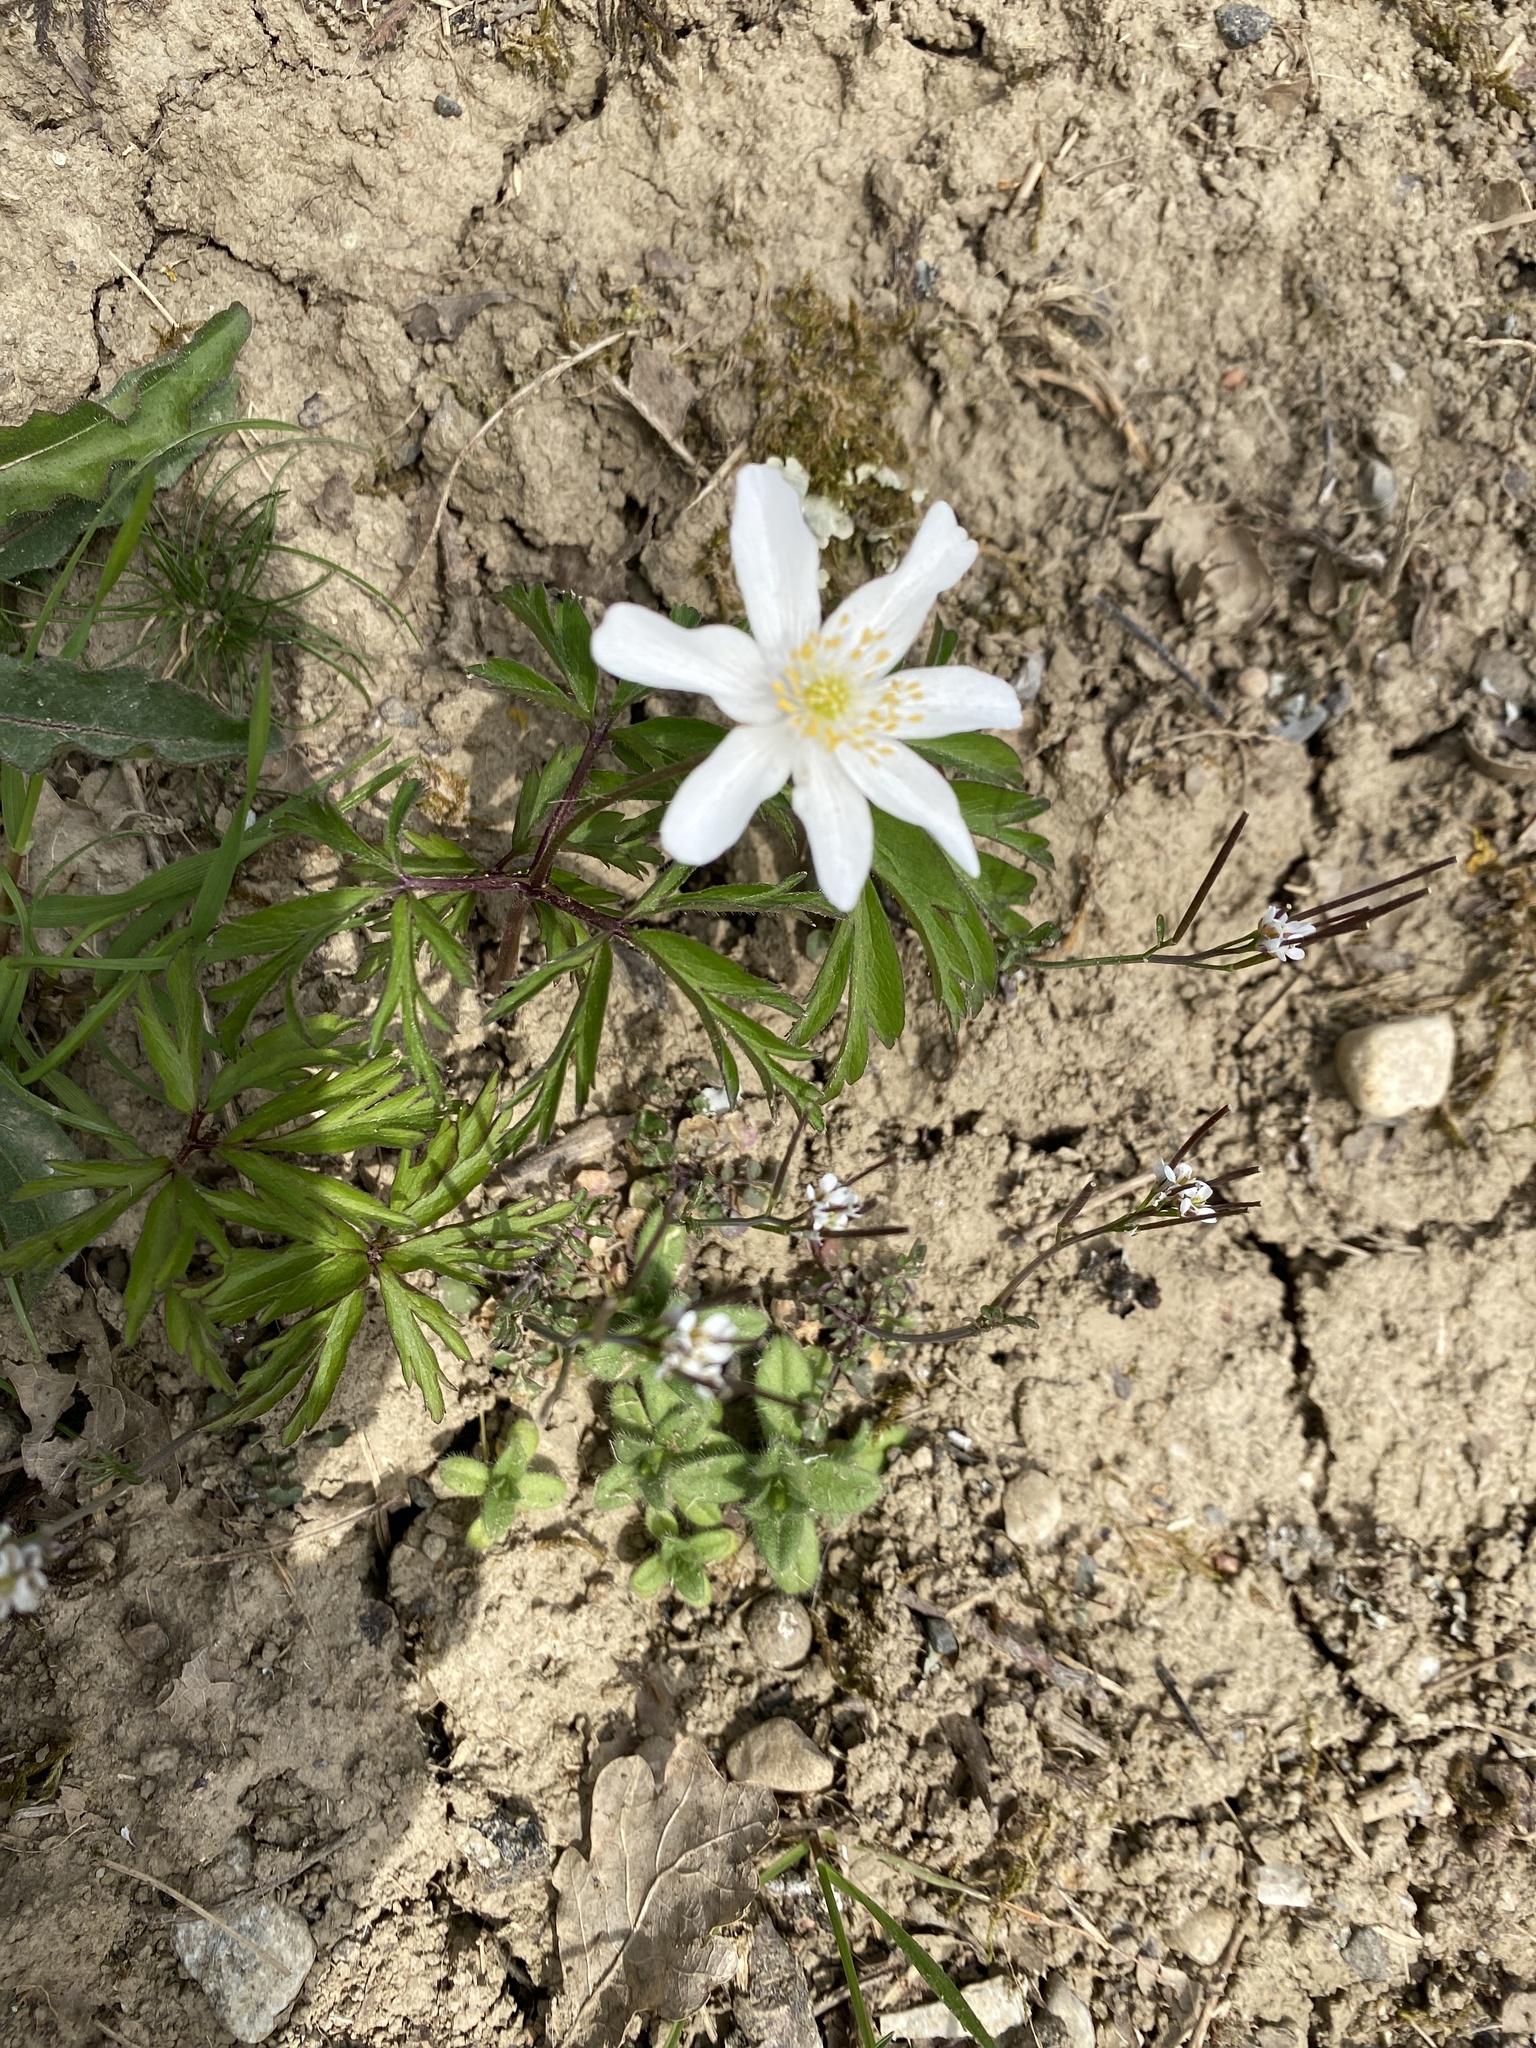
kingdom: Plantae
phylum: Tracheophyta
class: Magnoliopsida
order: Ranunculales
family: Ranunculaceae
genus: Anemone
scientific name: Anemone nemorosa
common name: Wood anemone
